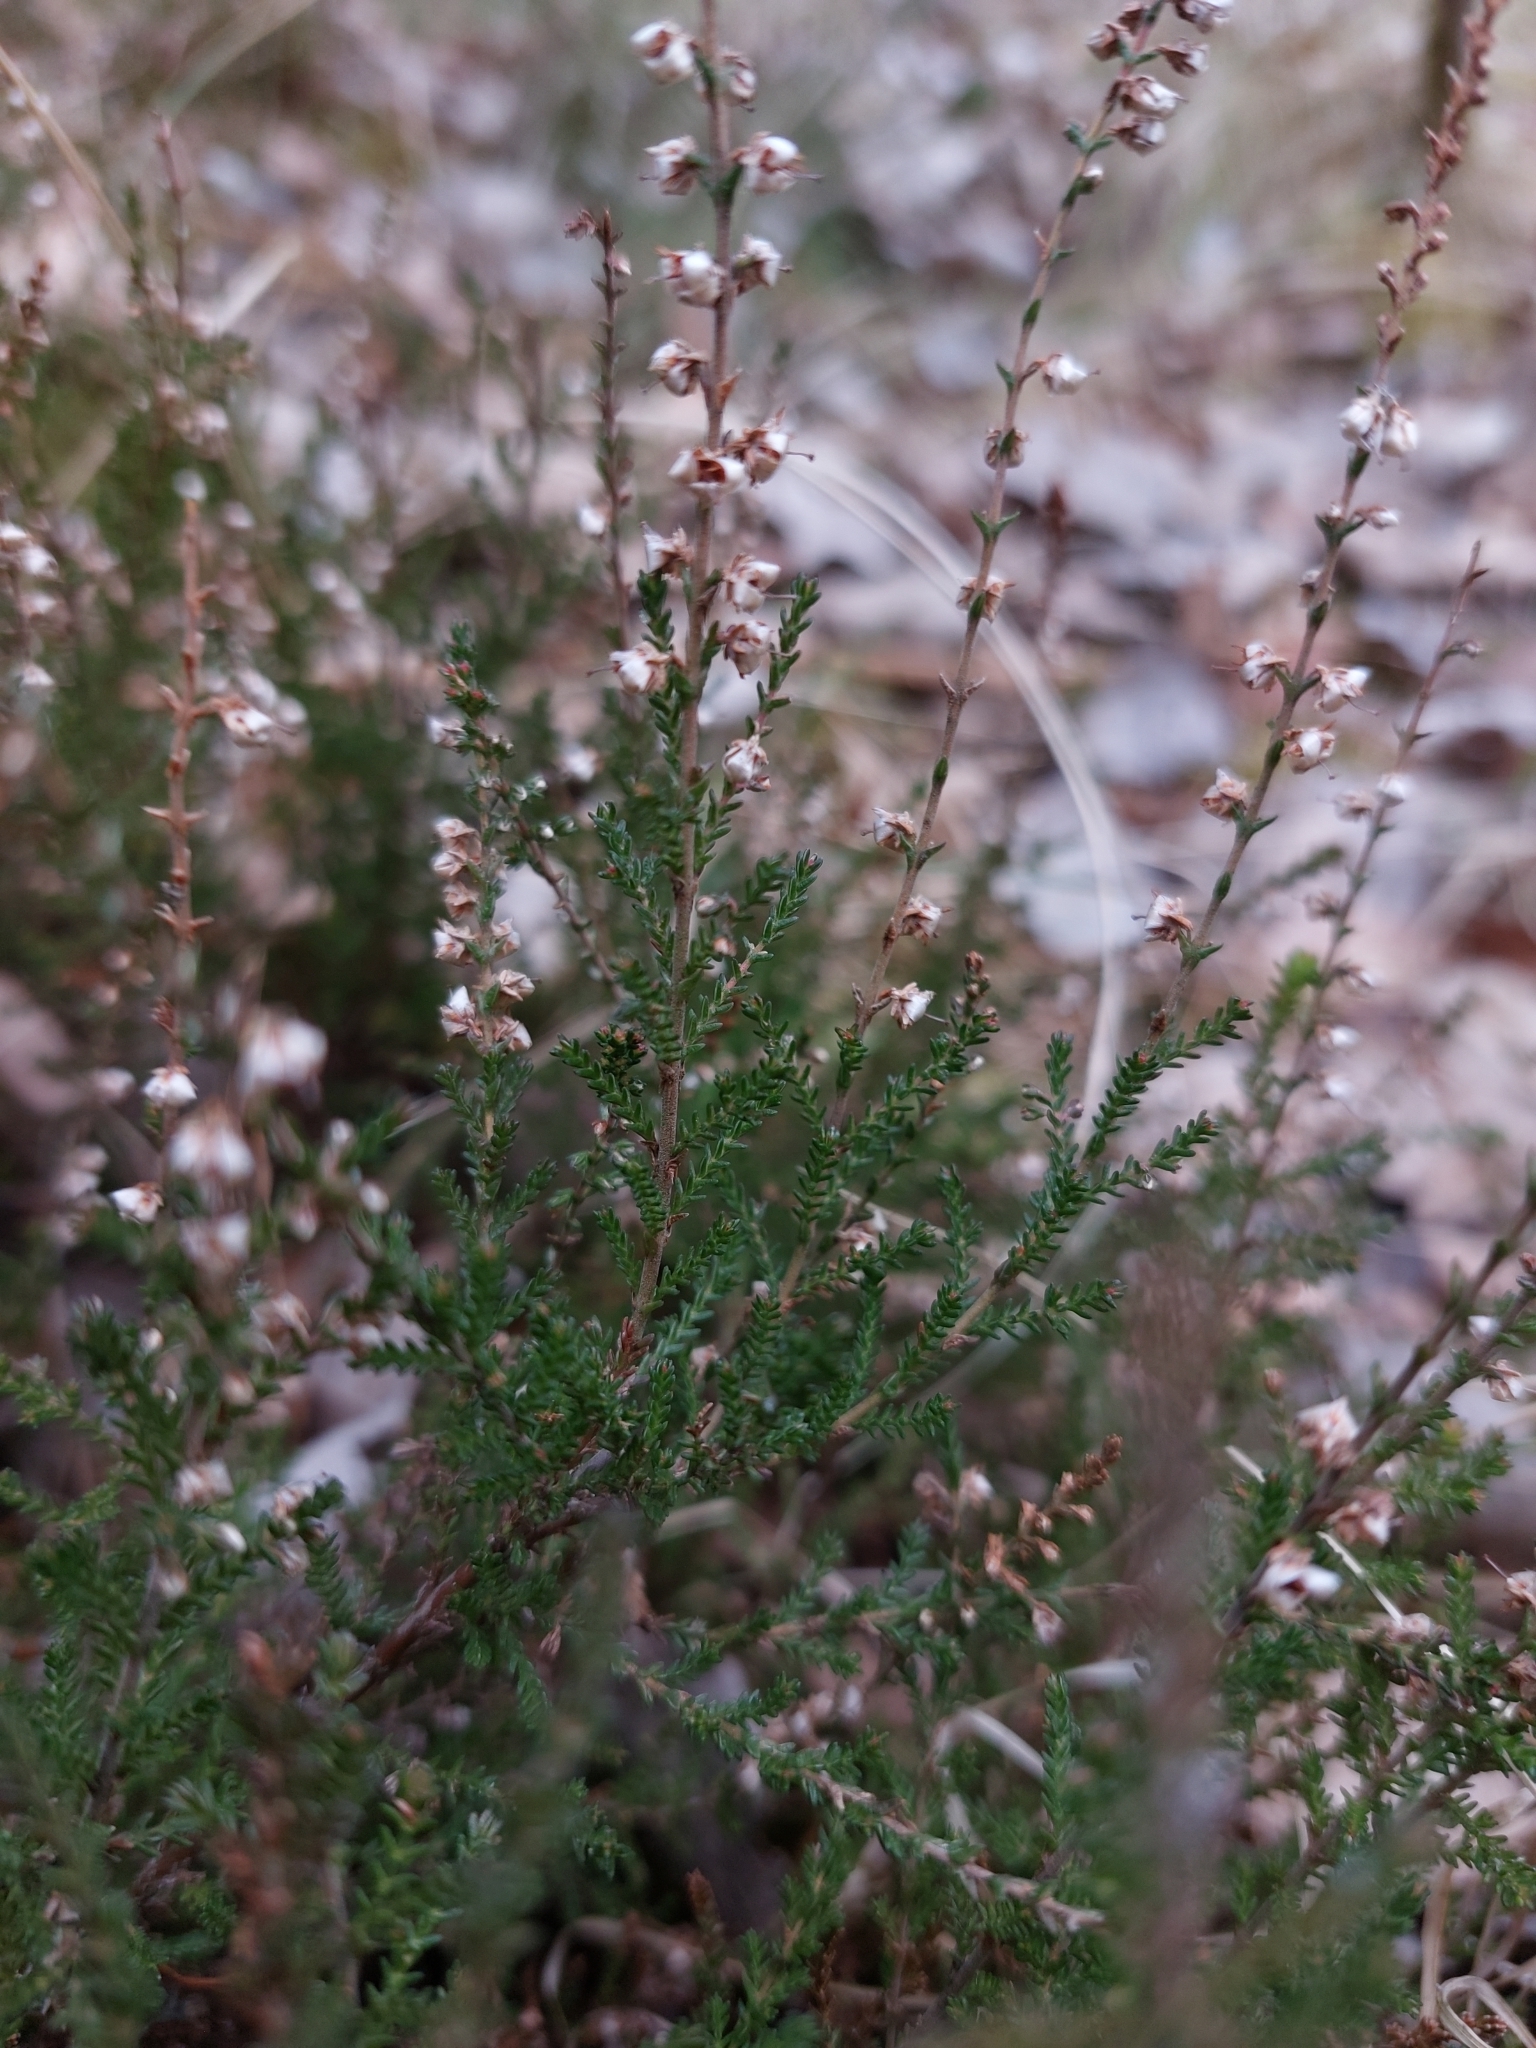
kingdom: Plantae
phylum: Tracheophyta
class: Magnoliopsida
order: Ericales
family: Ericaceae
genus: Calluna
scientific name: Calluna vulgaris
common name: Heather
